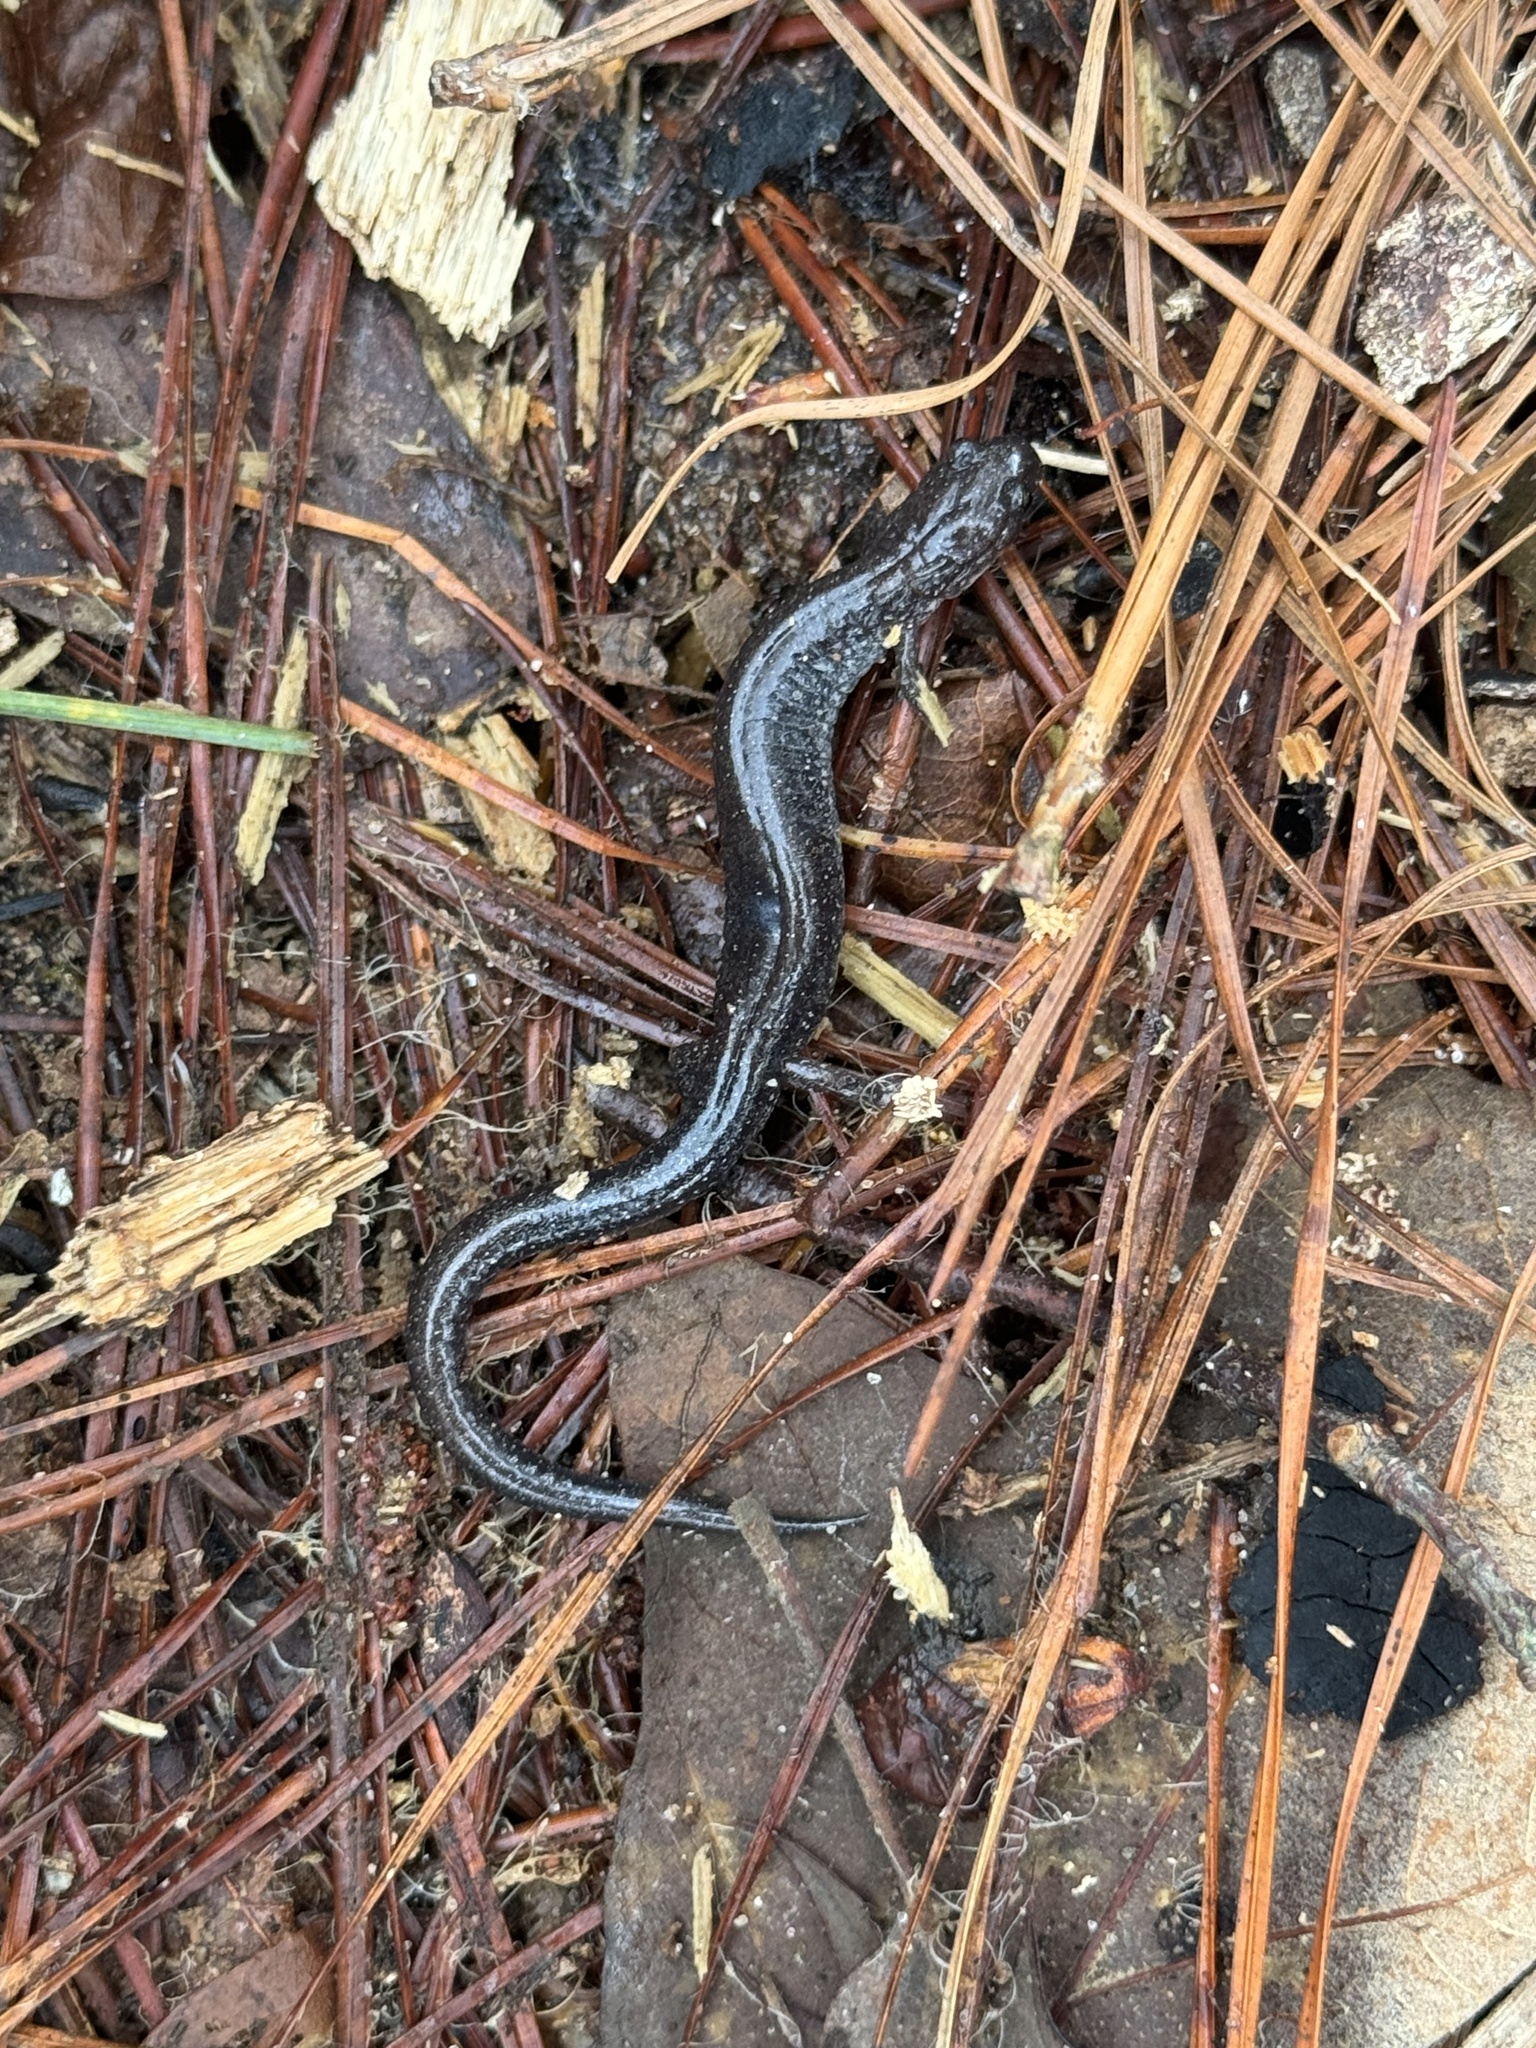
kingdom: Animalia
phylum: Chordata
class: Amphibia
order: Caudata
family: Plethodontidae
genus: Plethodon
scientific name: Plethodon cinereus
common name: Redback salamander
